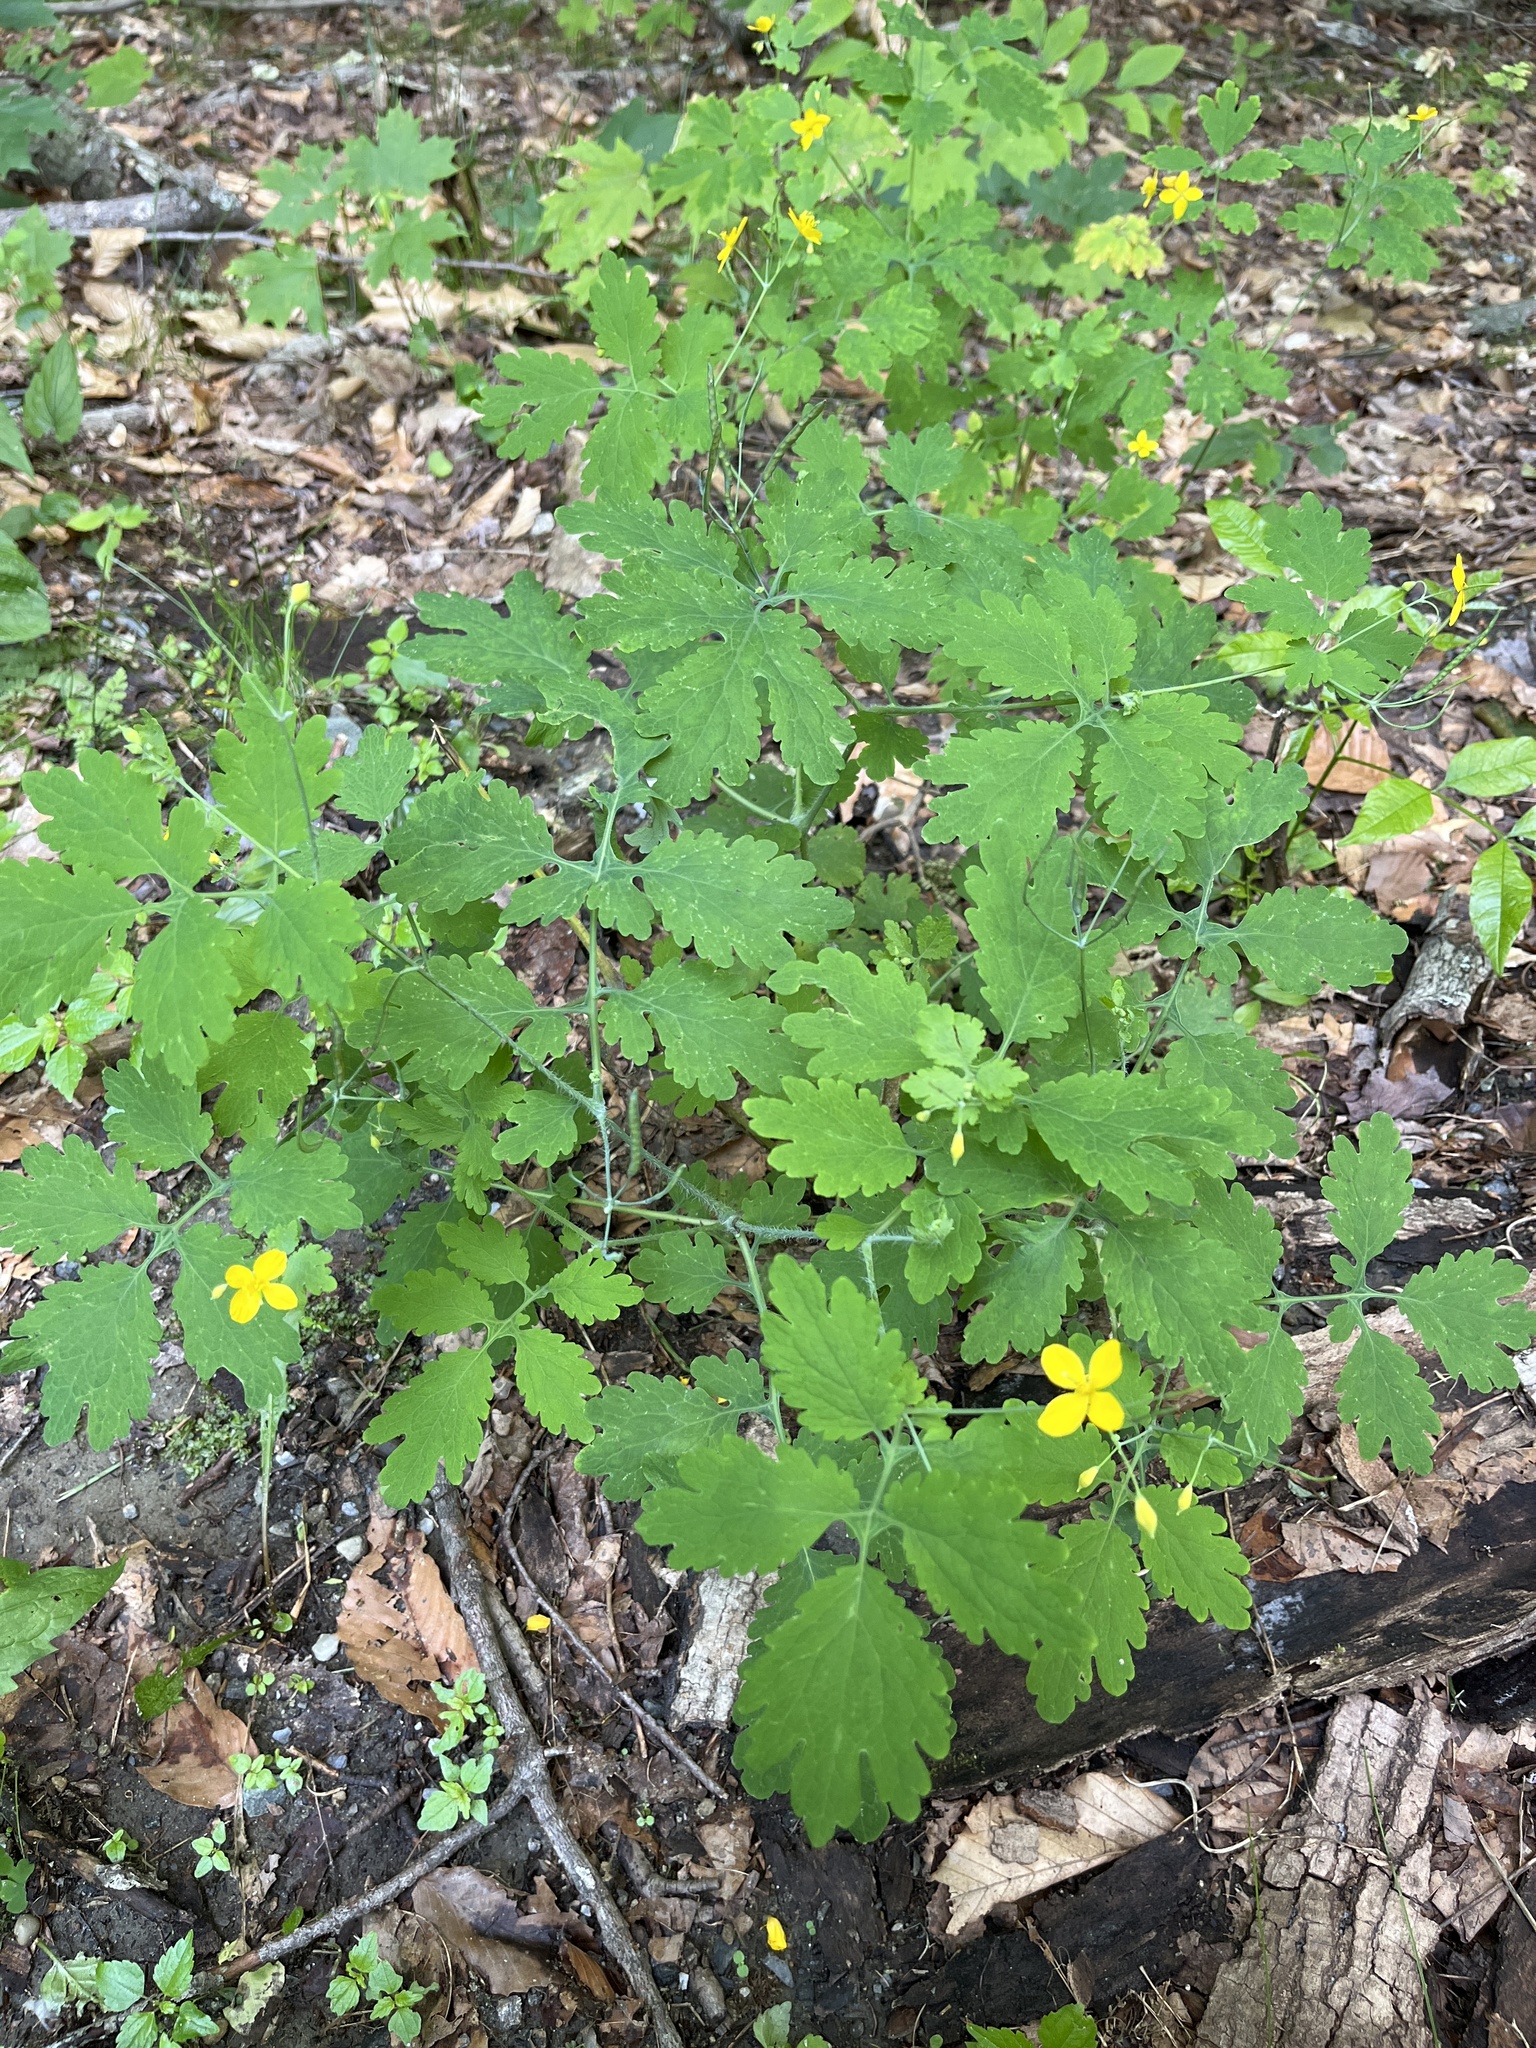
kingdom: Plantae
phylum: Tracheophyta
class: Magnoliopsida
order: Ranunculales
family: Papaveraceae
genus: Chelidonium
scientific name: Chelidonium majus
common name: Greater celandine
